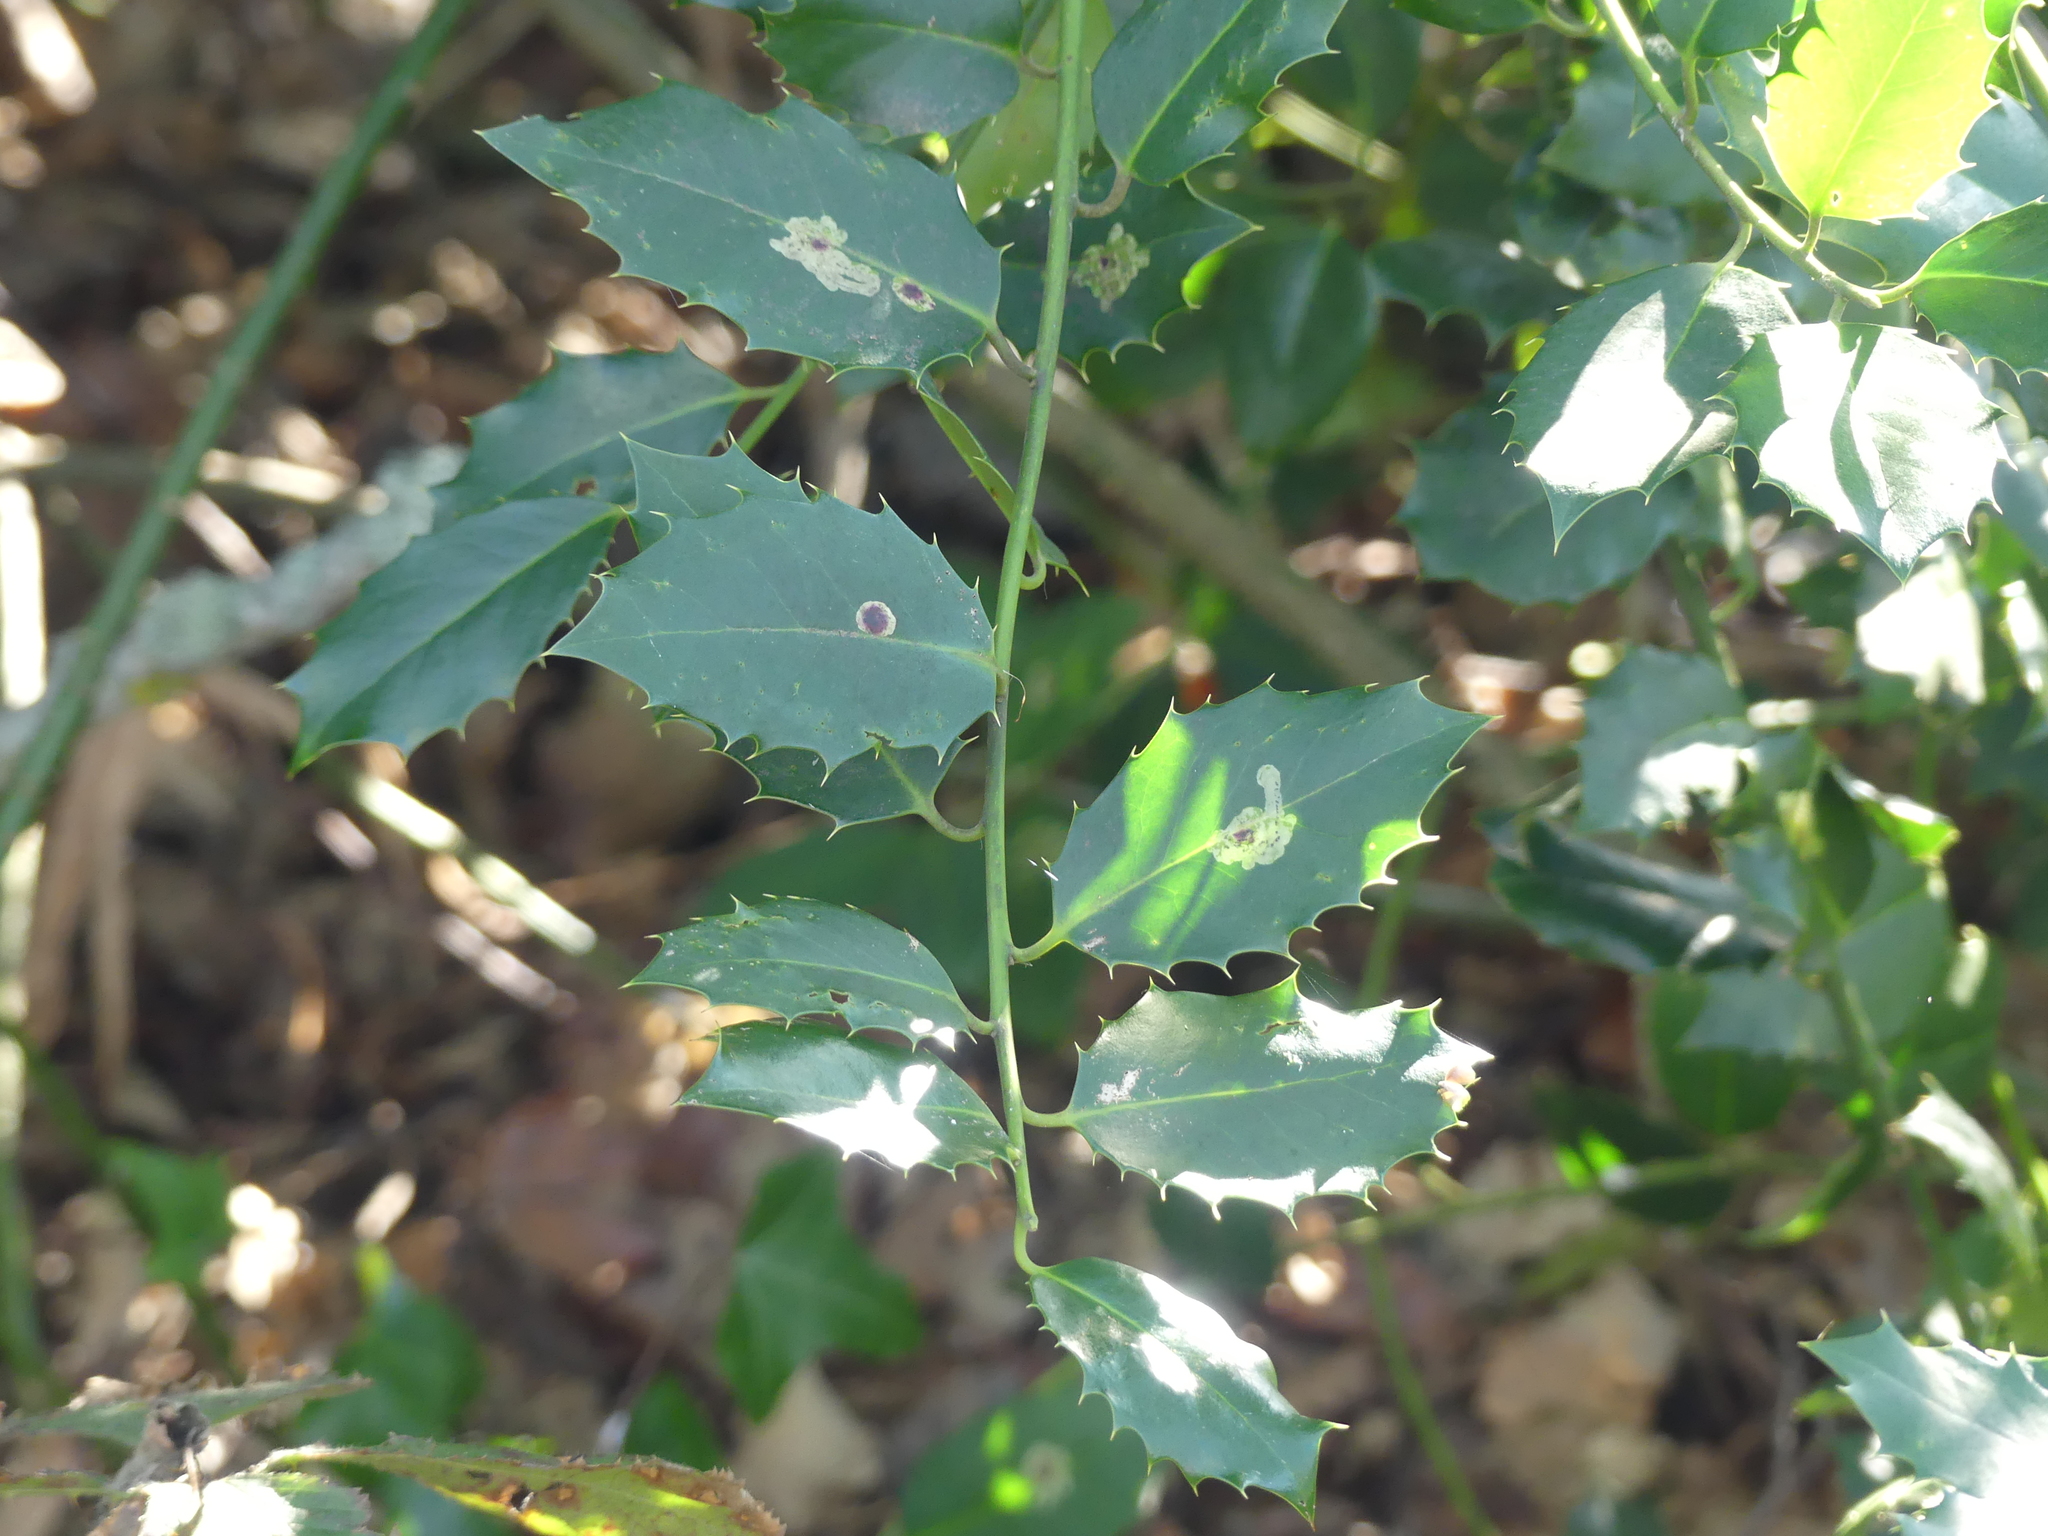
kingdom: Animalia
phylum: Arthropoda
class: Insecta
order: Diptera
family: Agromyzidae
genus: Phytomyza
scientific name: Phytomyza ilicis
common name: Holly leafminer
